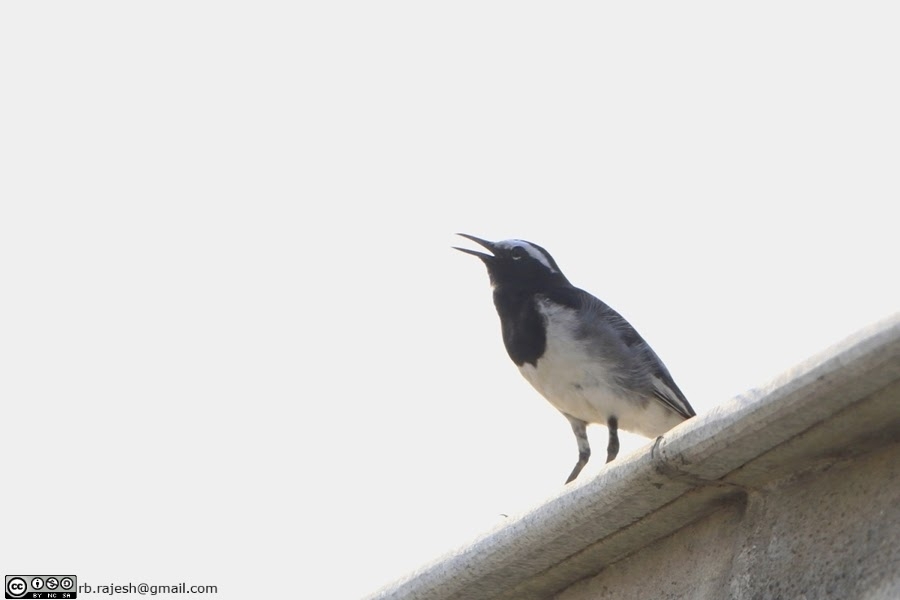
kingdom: Animalia
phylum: Chordata
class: Aves
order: Passeriformes
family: Motacillidae
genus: Motacilla
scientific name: Motacilla maderaspatensis
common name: White-browed wagtail
